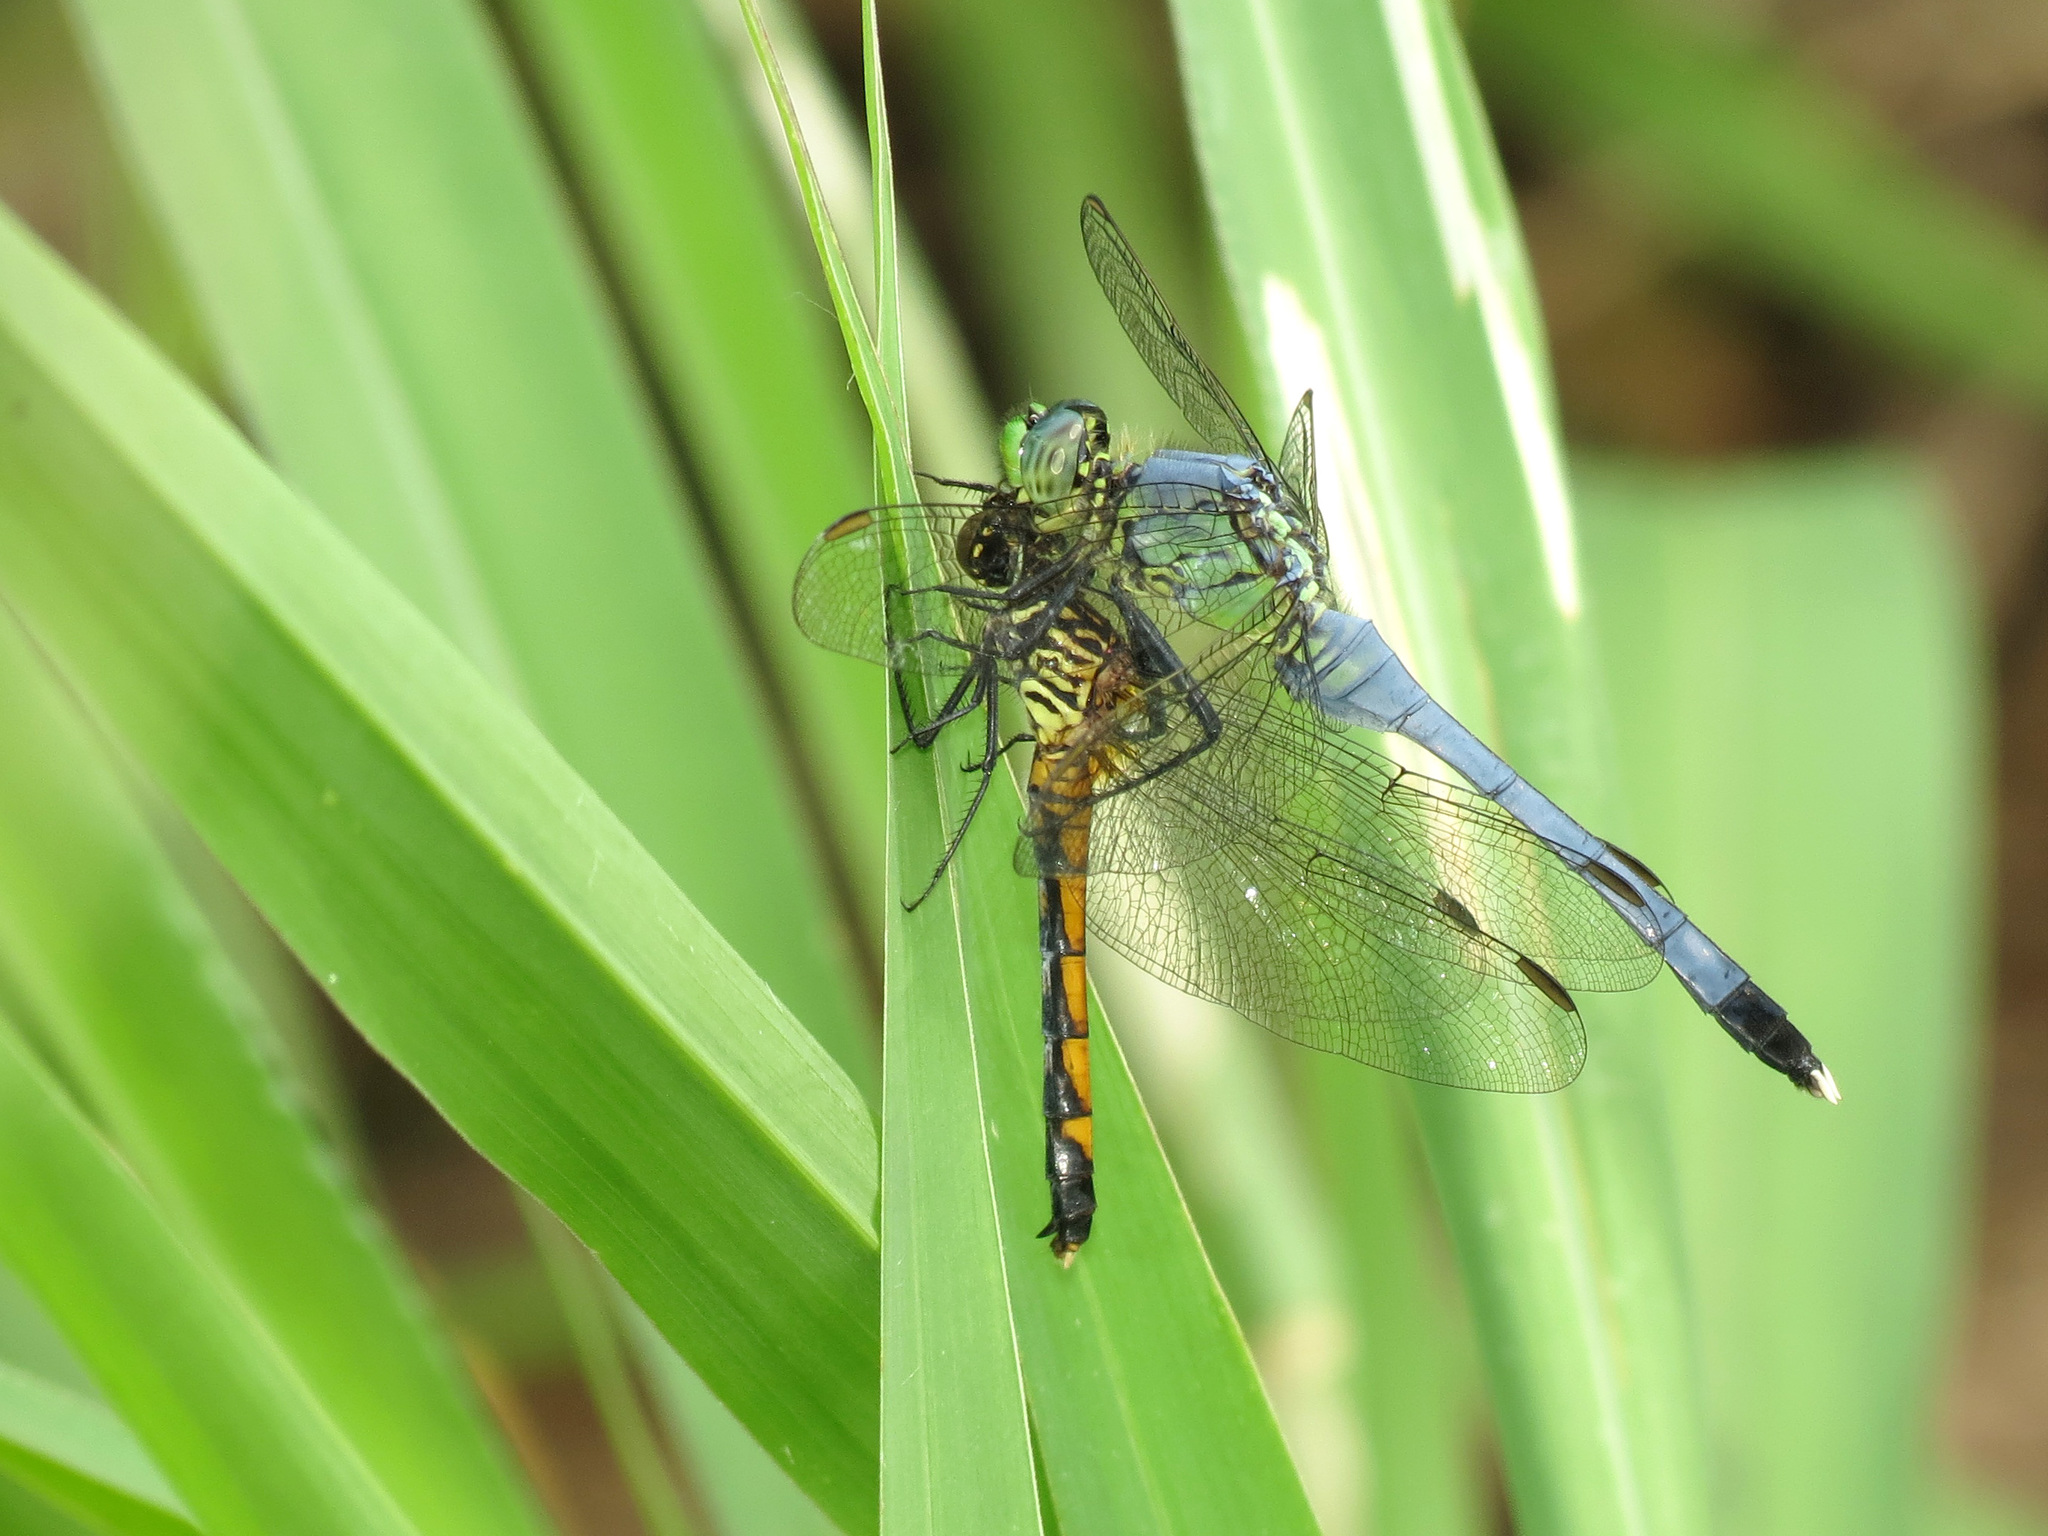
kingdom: Animalia
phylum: Arthropoda
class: Insecta
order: Odonata
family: Libellulidae
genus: Erythemis
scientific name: Erythemis simplicicollis
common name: Eastern pondhawk
